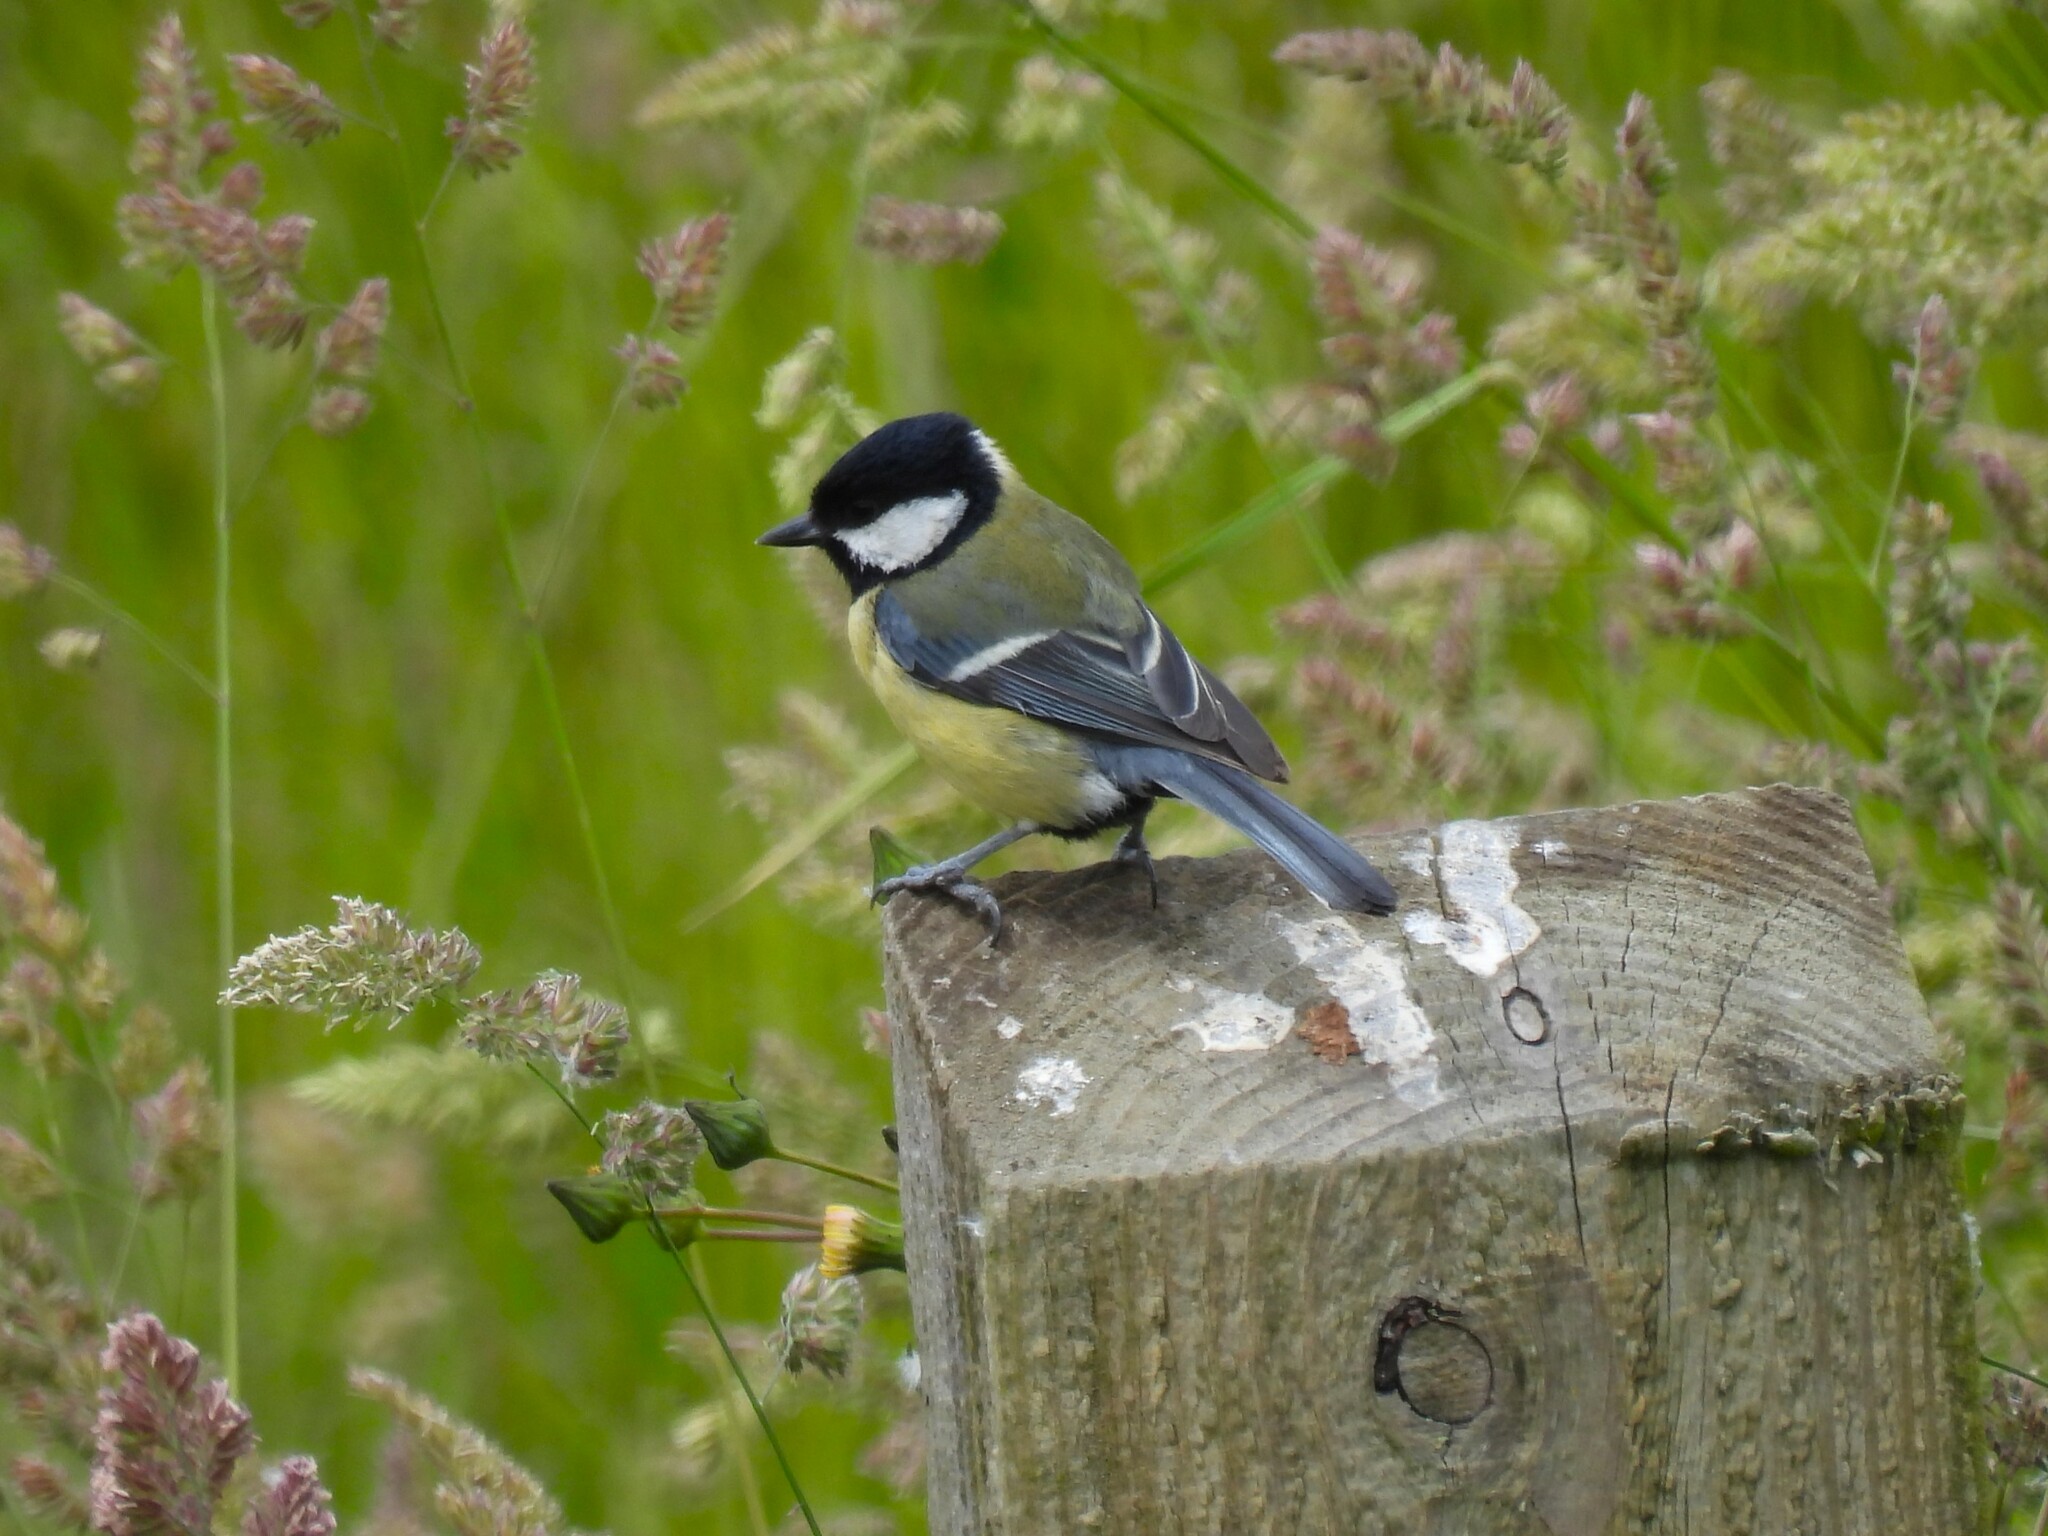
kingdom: Animalia
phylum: Chordata
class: Aves
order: Passeriformes
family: Paridae
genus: Parus
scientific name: Parus major
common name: Great tit
